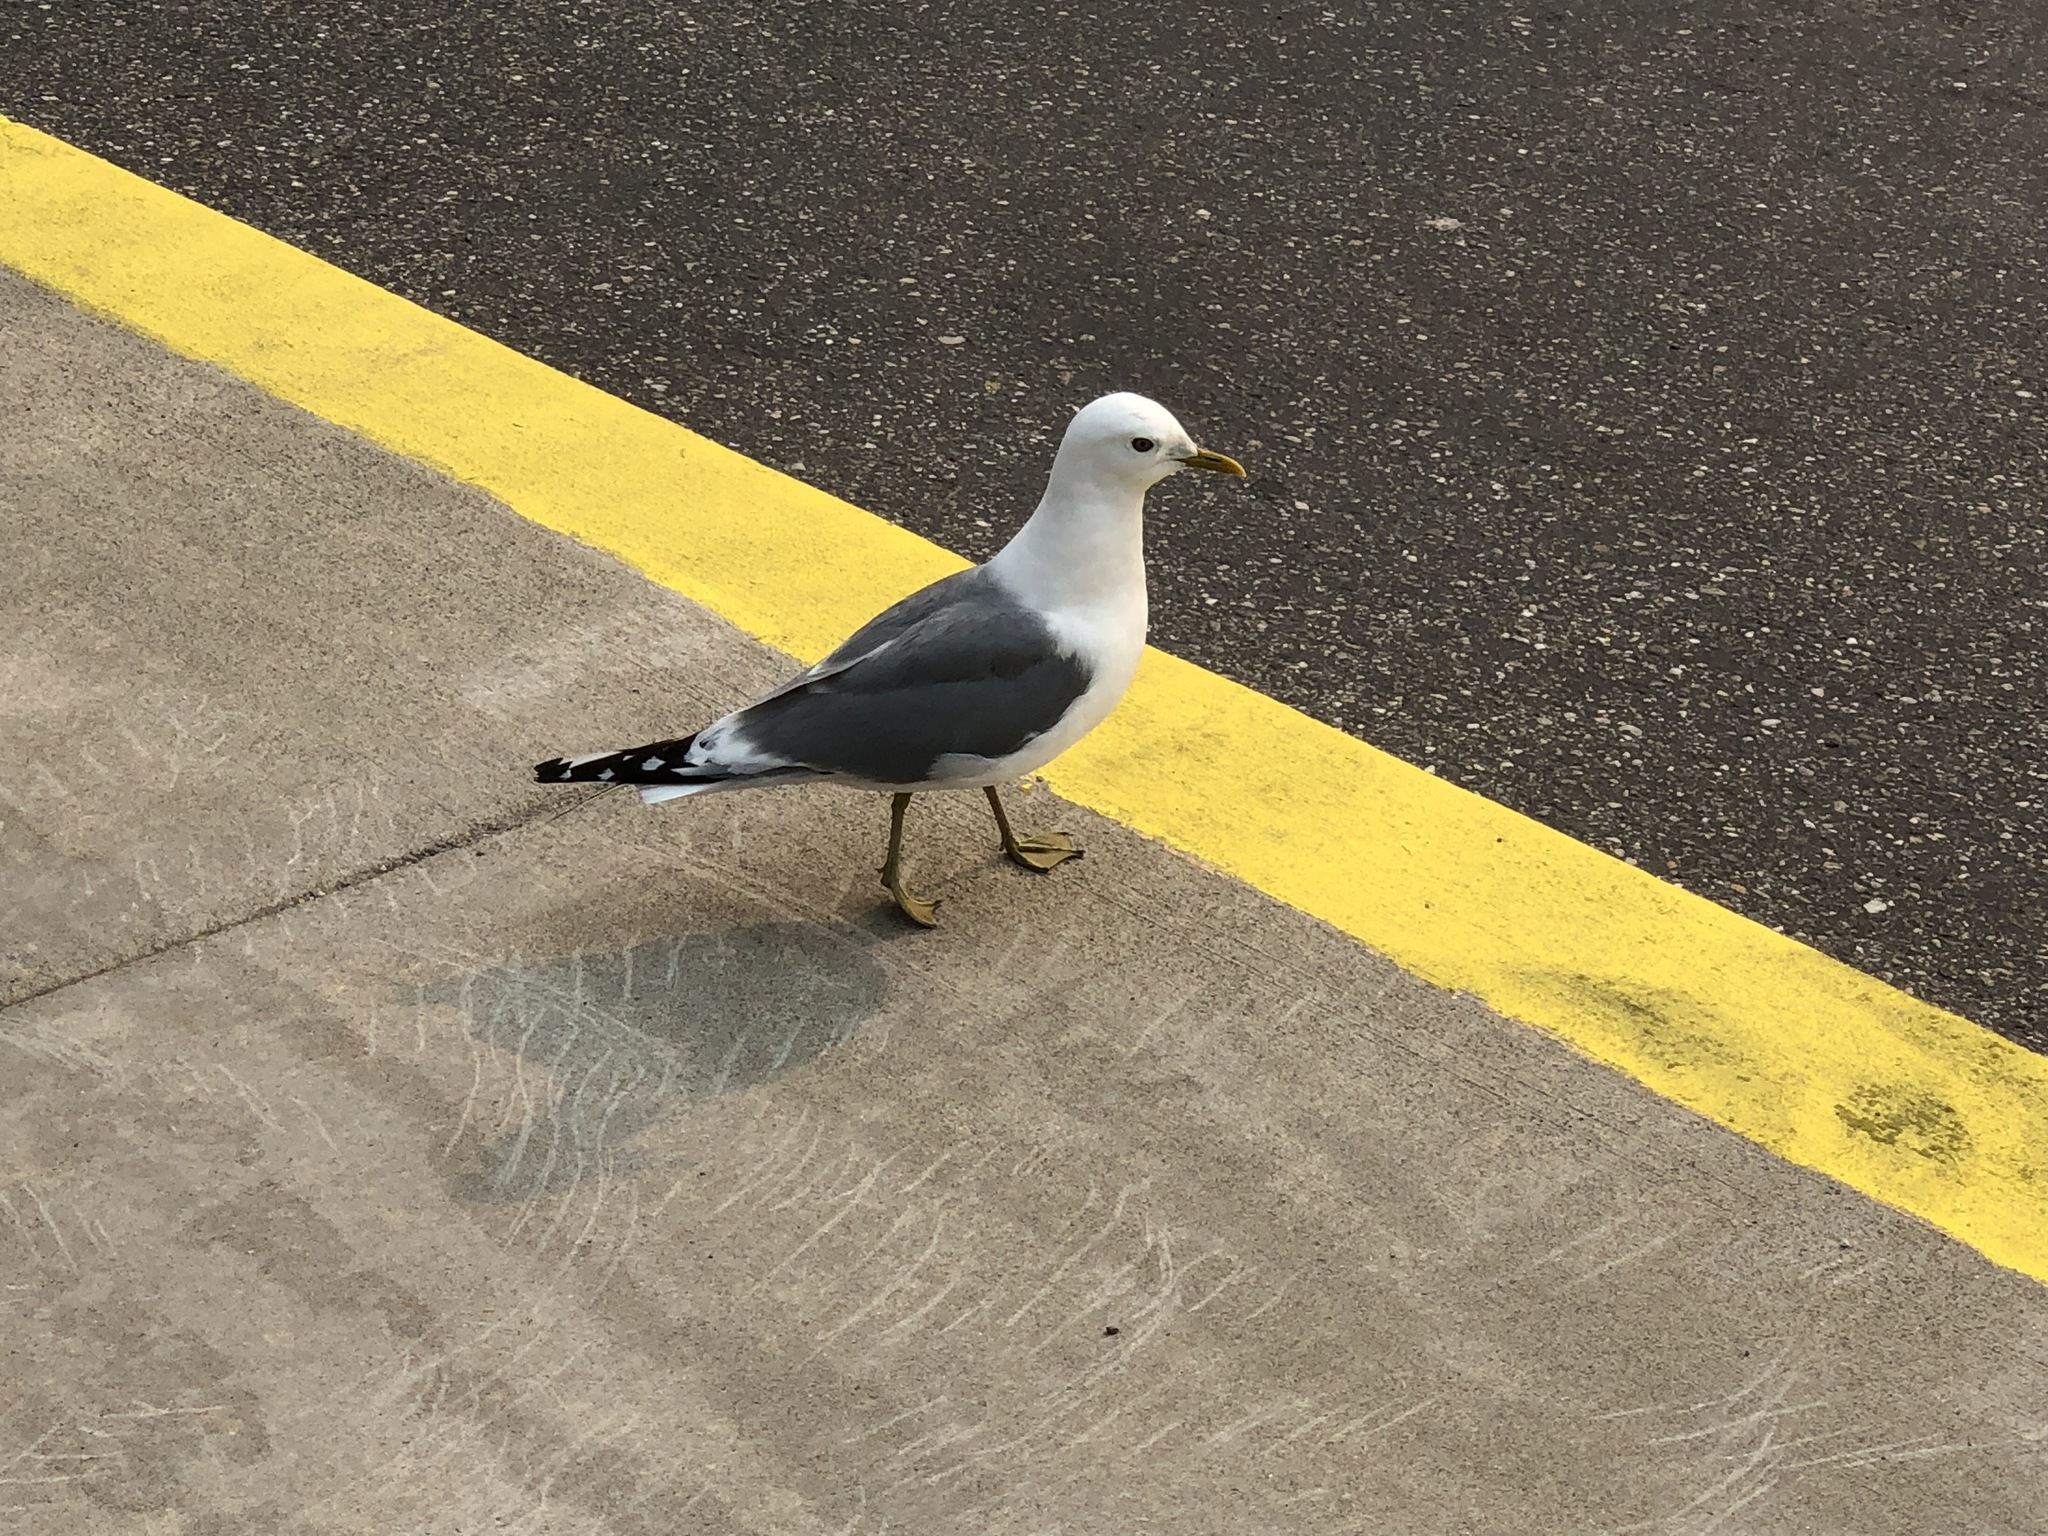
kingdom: Animalia
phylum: Chordata
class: Aves
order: Charadriiformes
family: Laridae
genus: Larus
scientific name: Larus brachyrhynchus
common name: Short-billed gull
